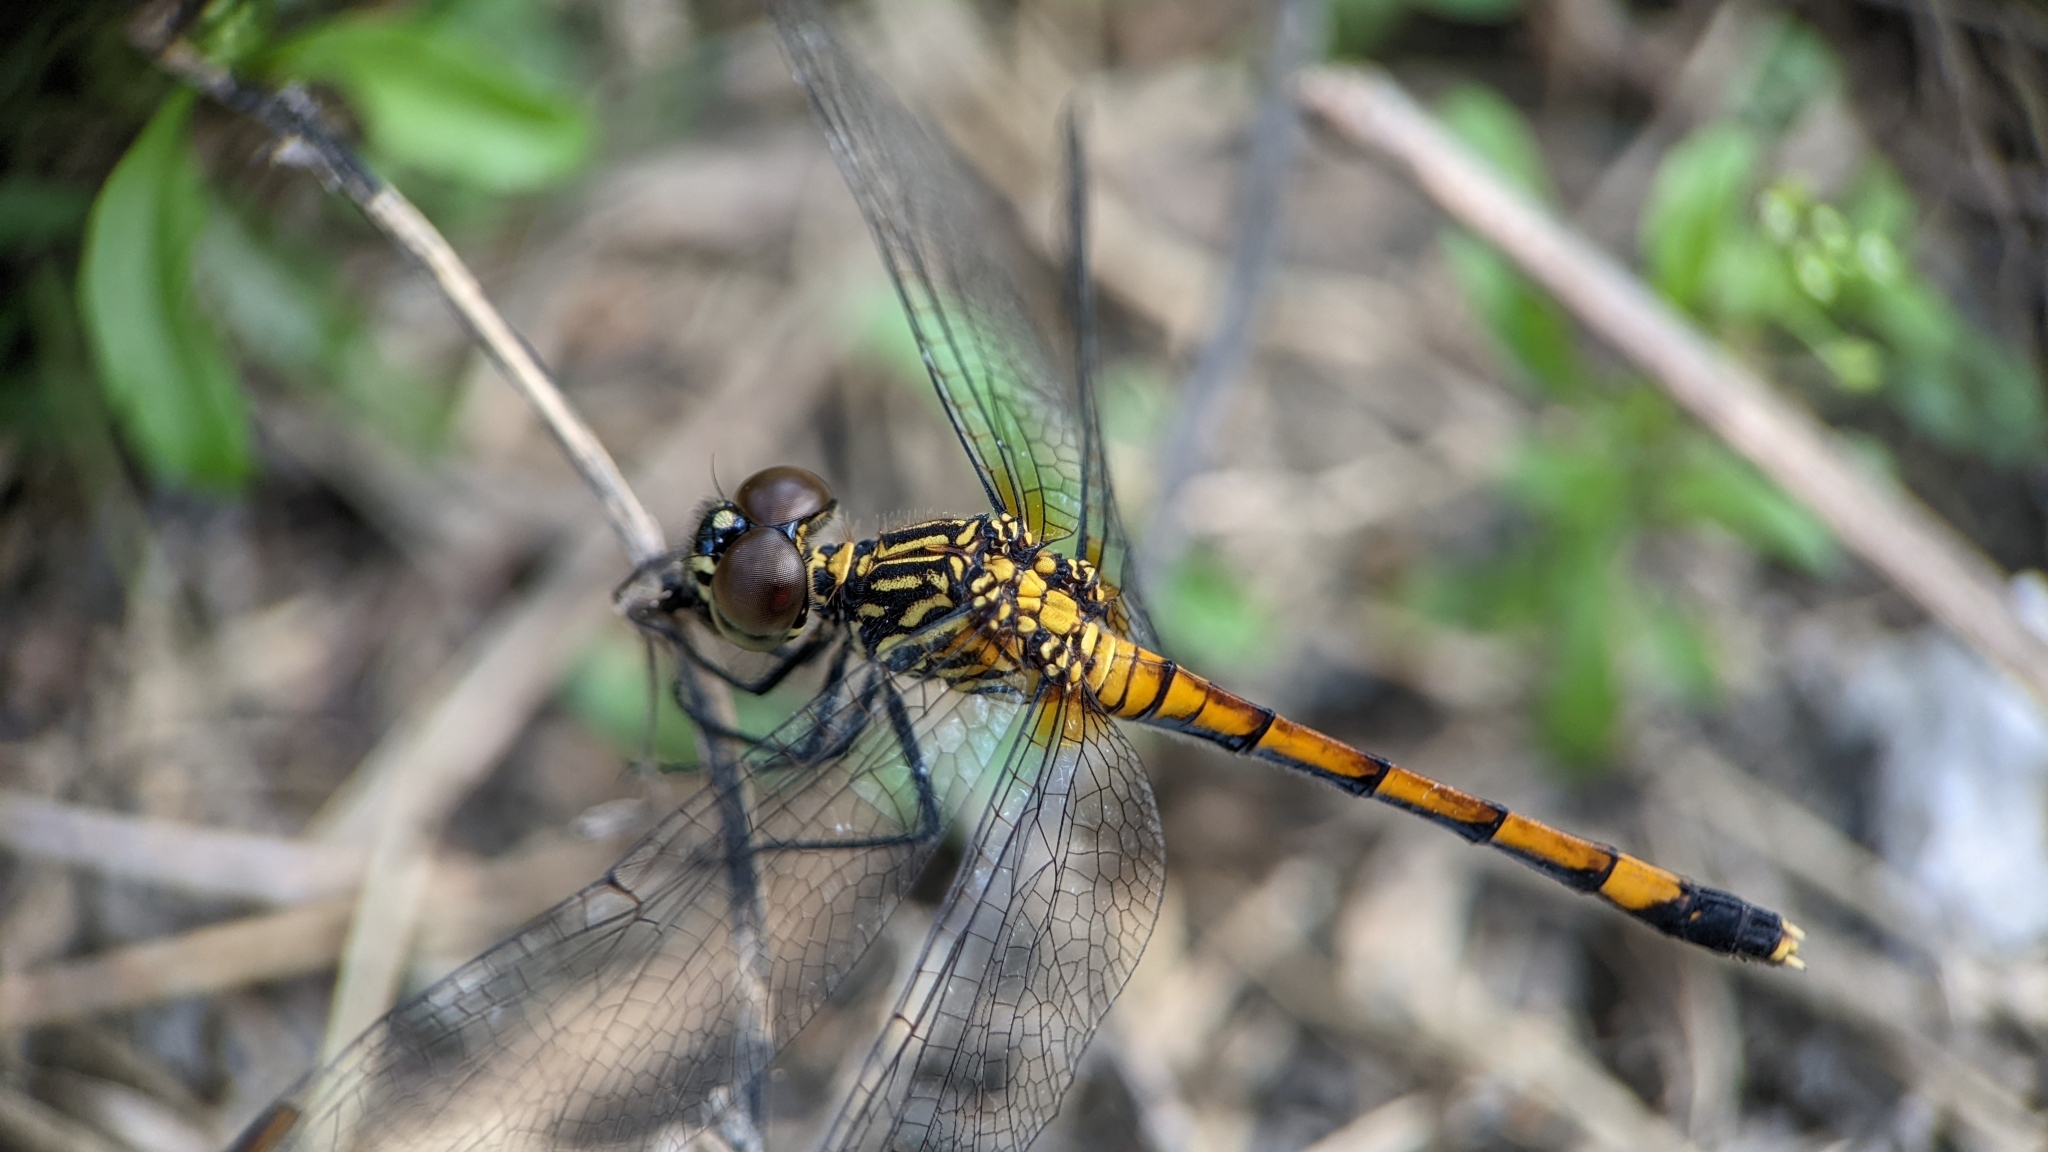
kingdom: Animalia
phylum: Arthropoda
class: Insecta
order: Odonata
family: Libellulidae
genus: Erythrodiplax
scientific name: Erythrodiplax berenice
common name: Seaside dragonlet
